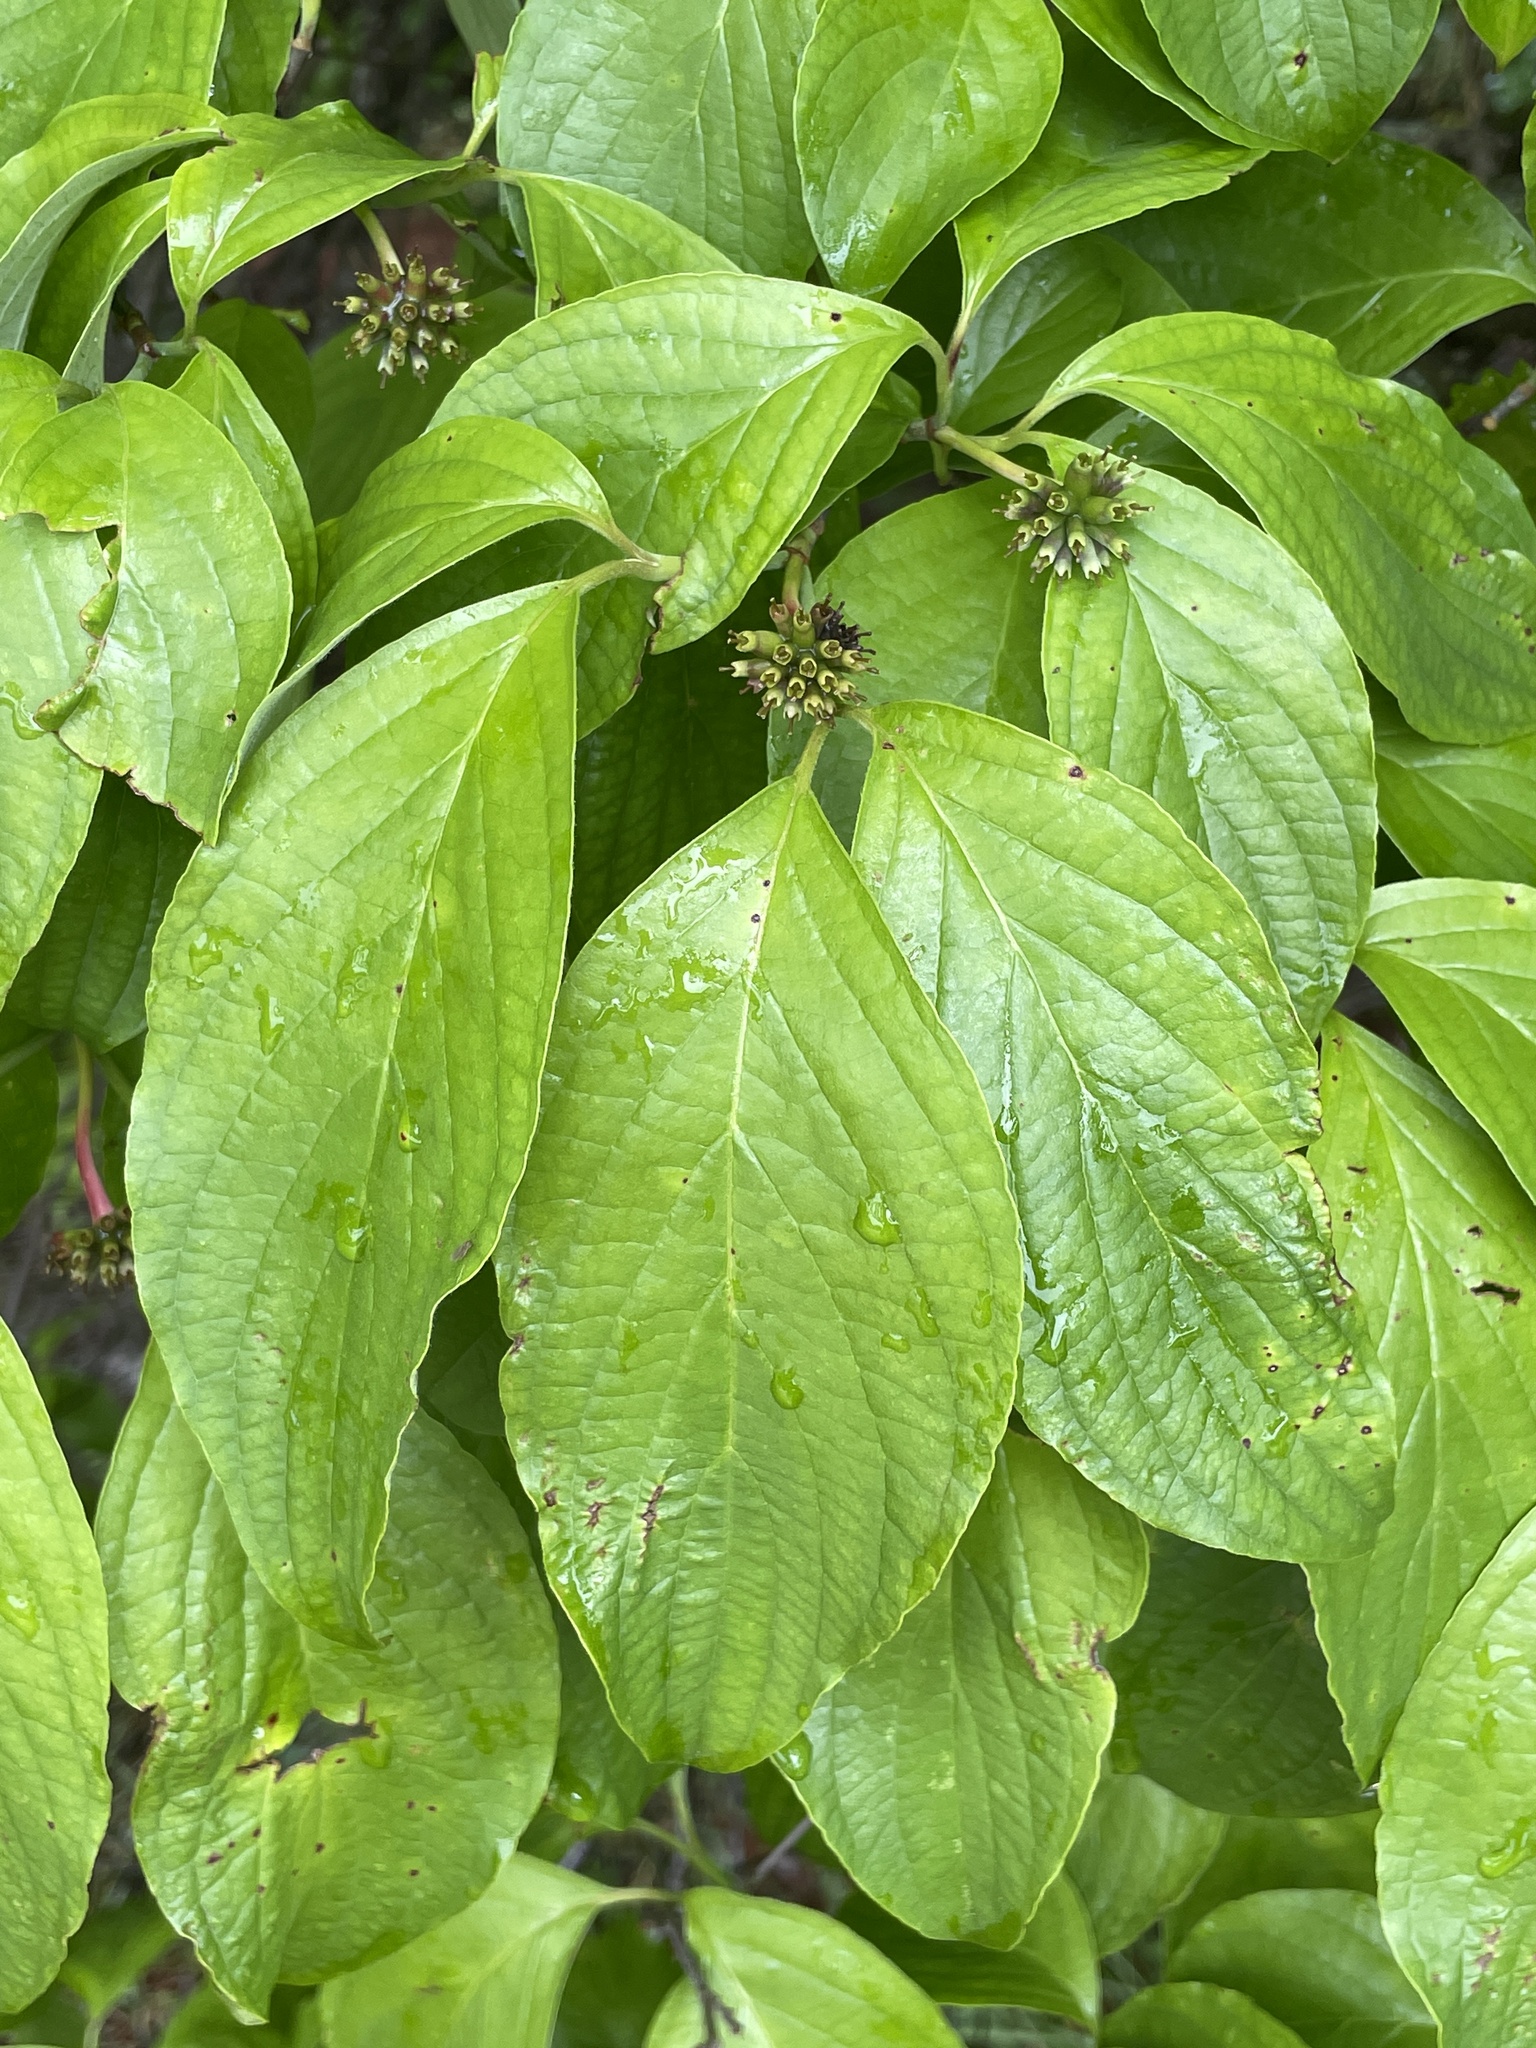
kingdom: Plantae
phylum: Tracheophyta
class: Magnoliopsida
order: Cornales
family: Cornaceae
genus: Cornus
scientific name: Cornus florida
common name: Flowering dogwood
